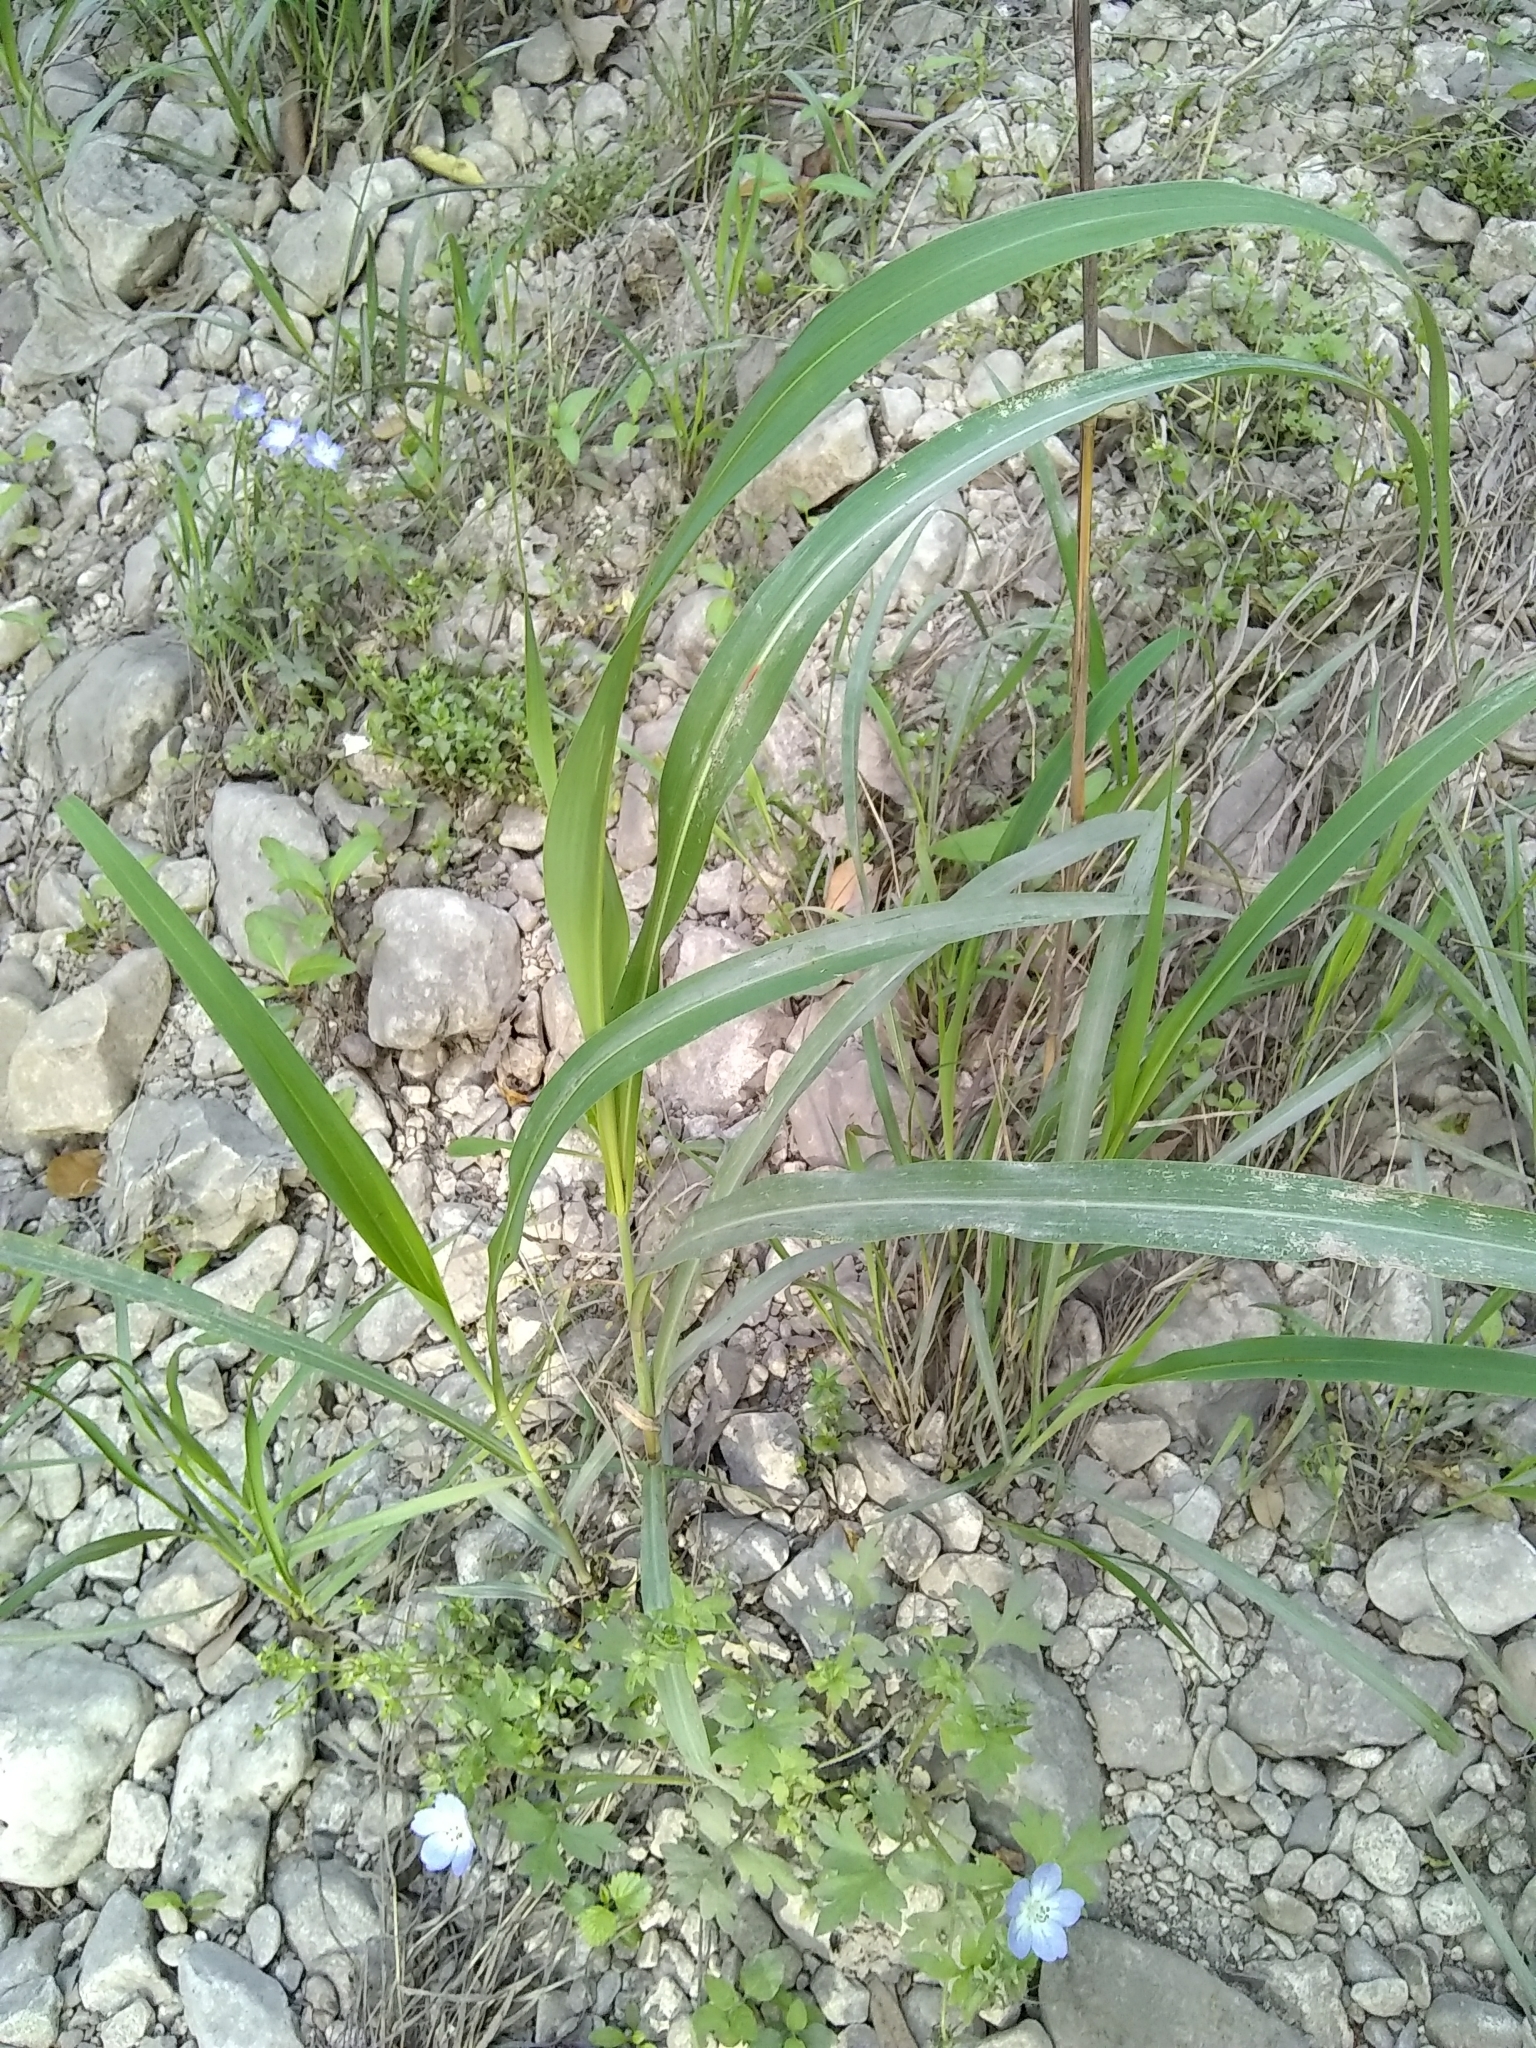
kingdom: Plantae
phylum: Tracheophyta
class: Liliopsida
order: Poales
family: Poaceae
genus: Sorghum
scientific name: Sorghum halepense
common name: Johnson-grass
